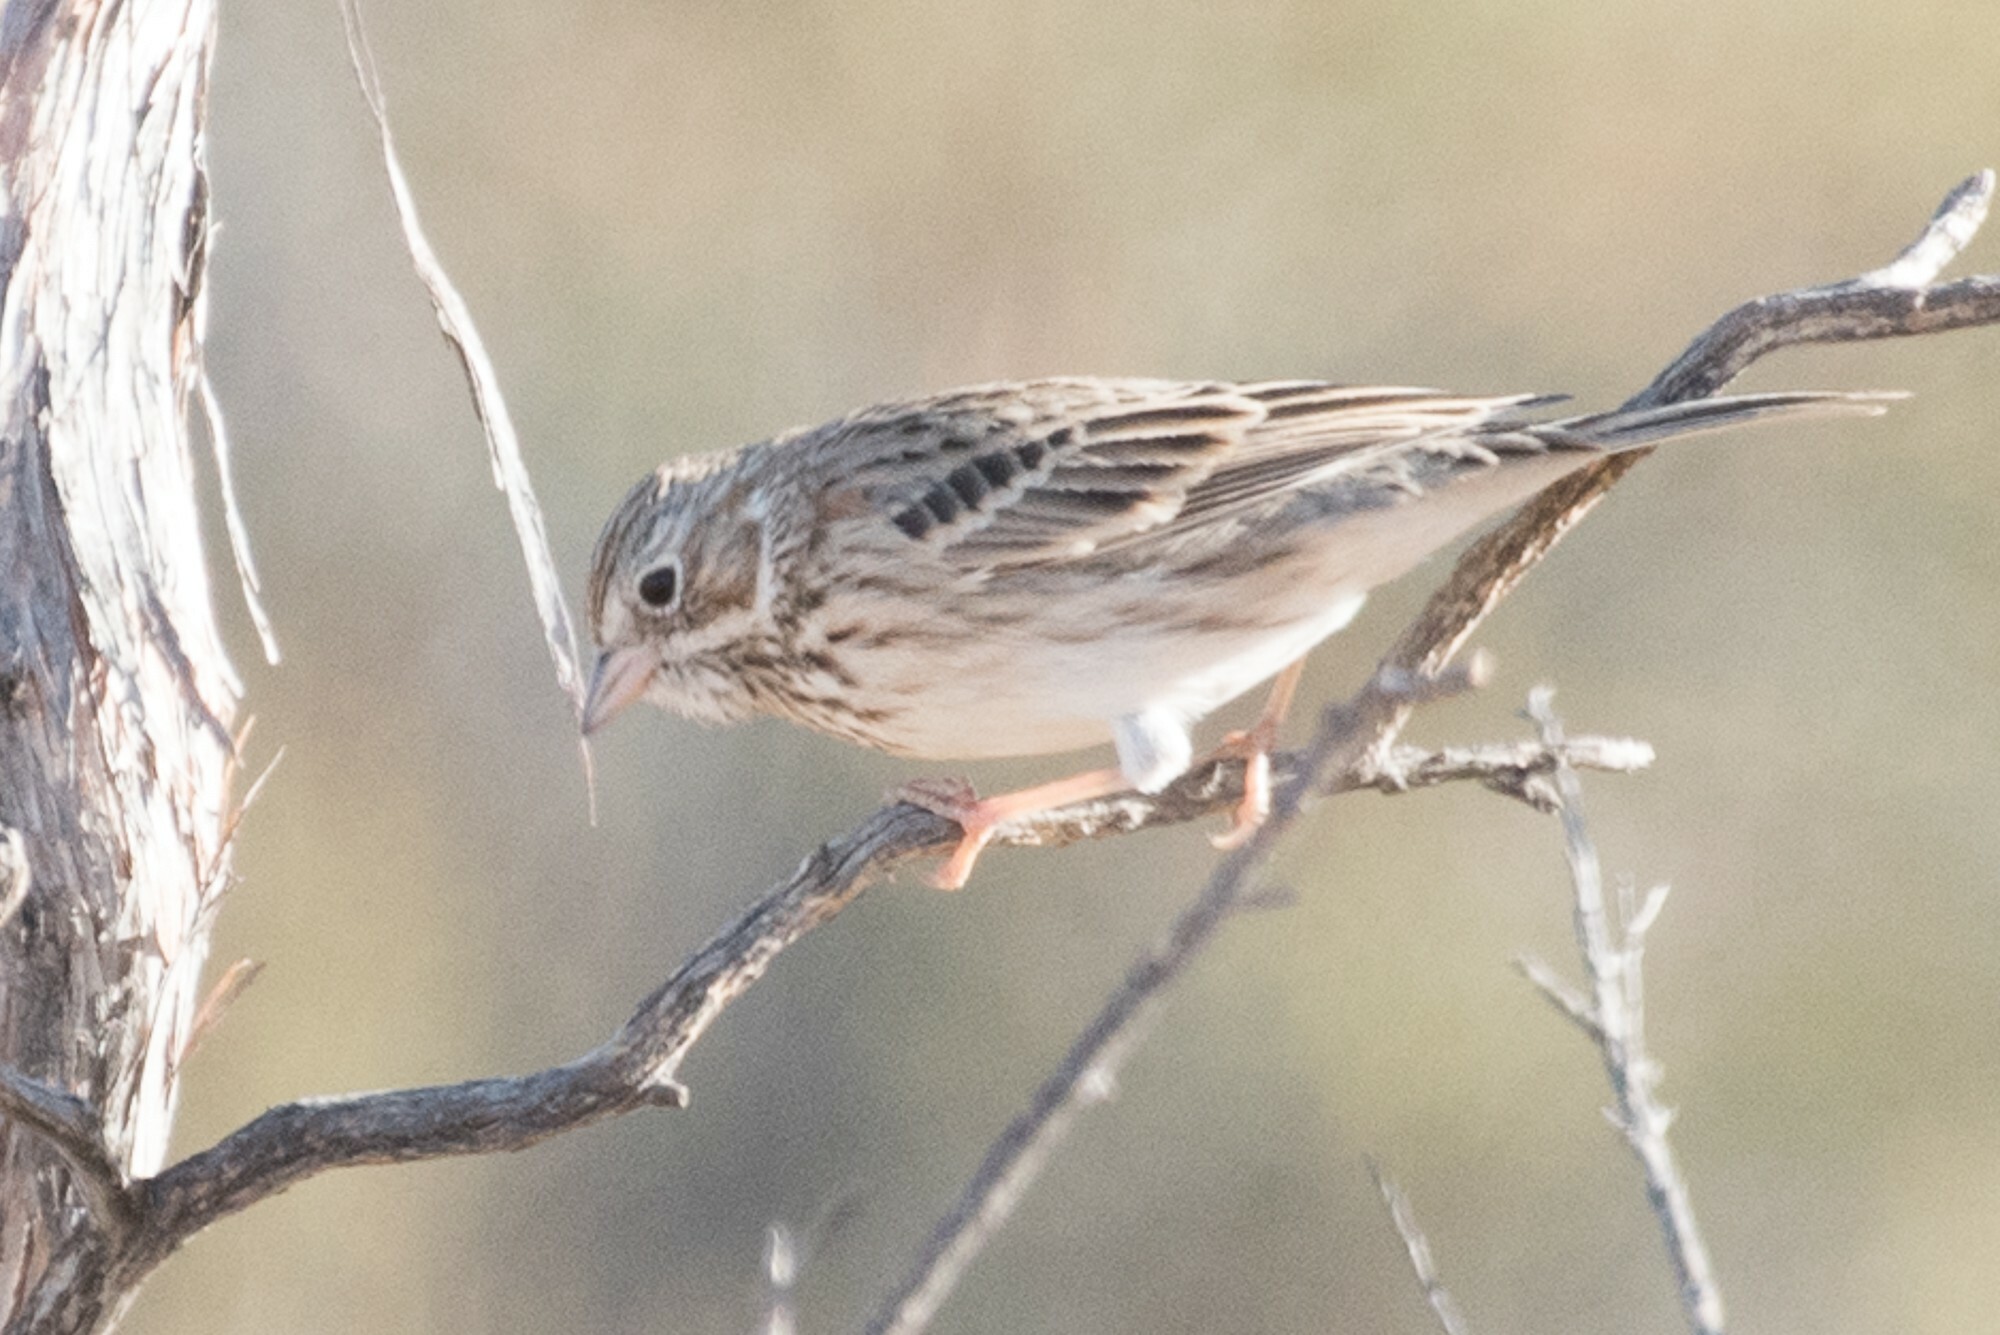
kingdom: Animalia
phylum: Chordata
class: Aves
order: Passeriformes
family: Passerellidae
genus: Pooecetes
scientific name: Pooecetes gramineus
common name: Vesper sparrow
